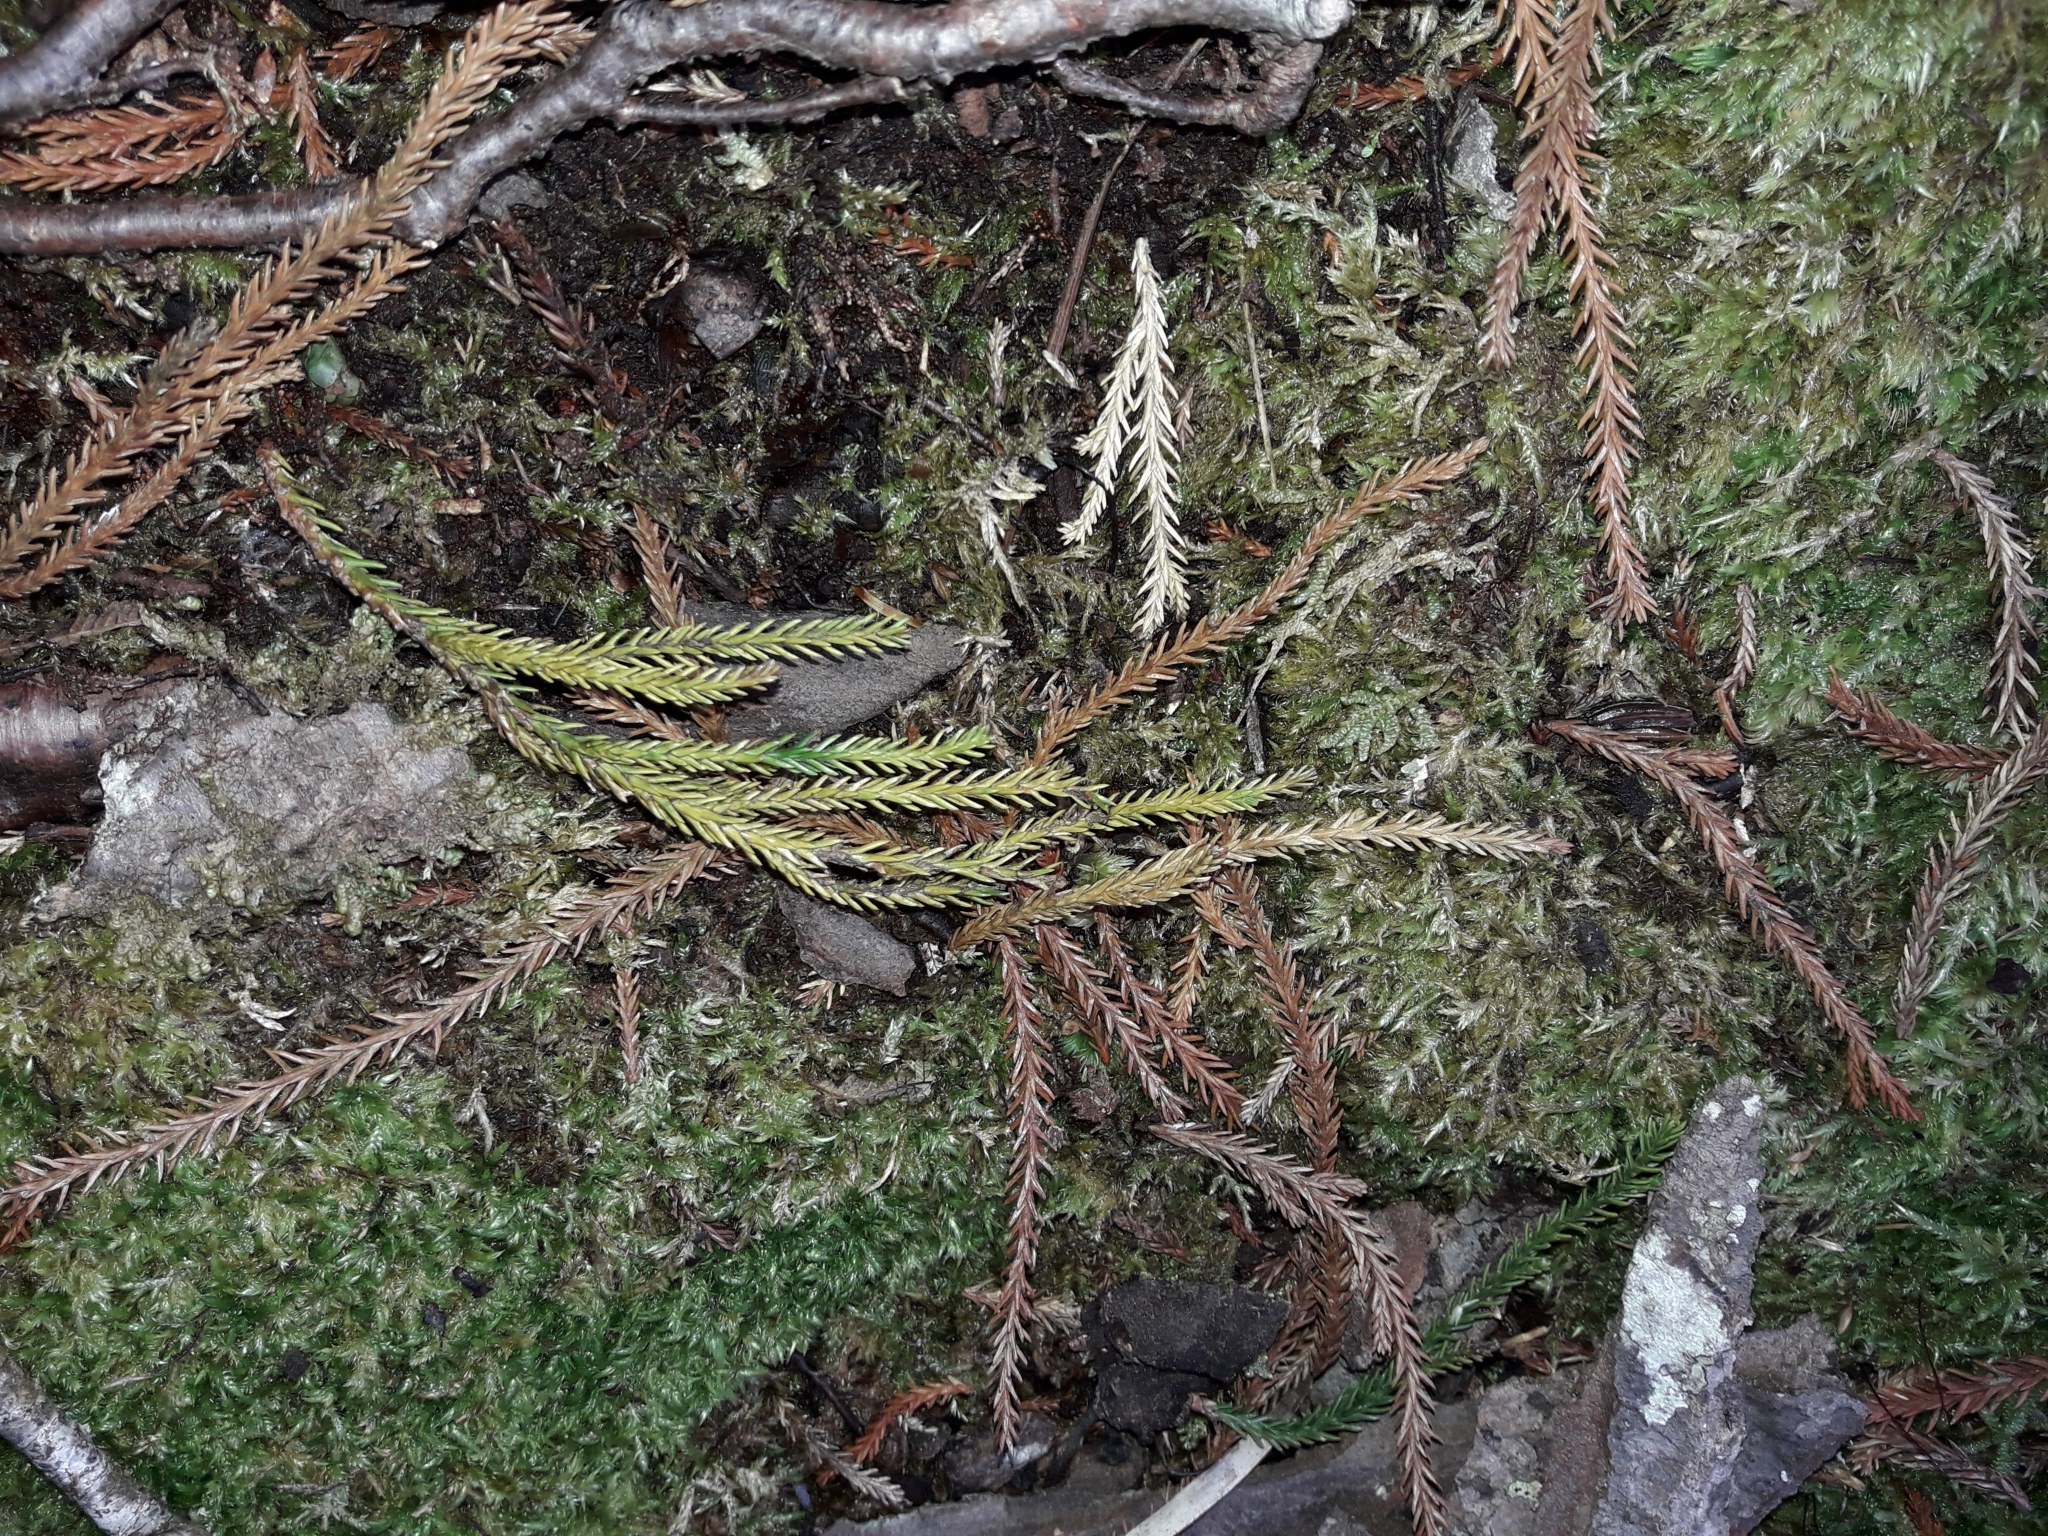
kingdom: Plantae
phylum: Tracheophyta
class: Pinopsida
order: Pinales
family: Podocarpaceae
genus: Dacrydium
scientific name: Dacrydium cupressinum
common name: Red pine
